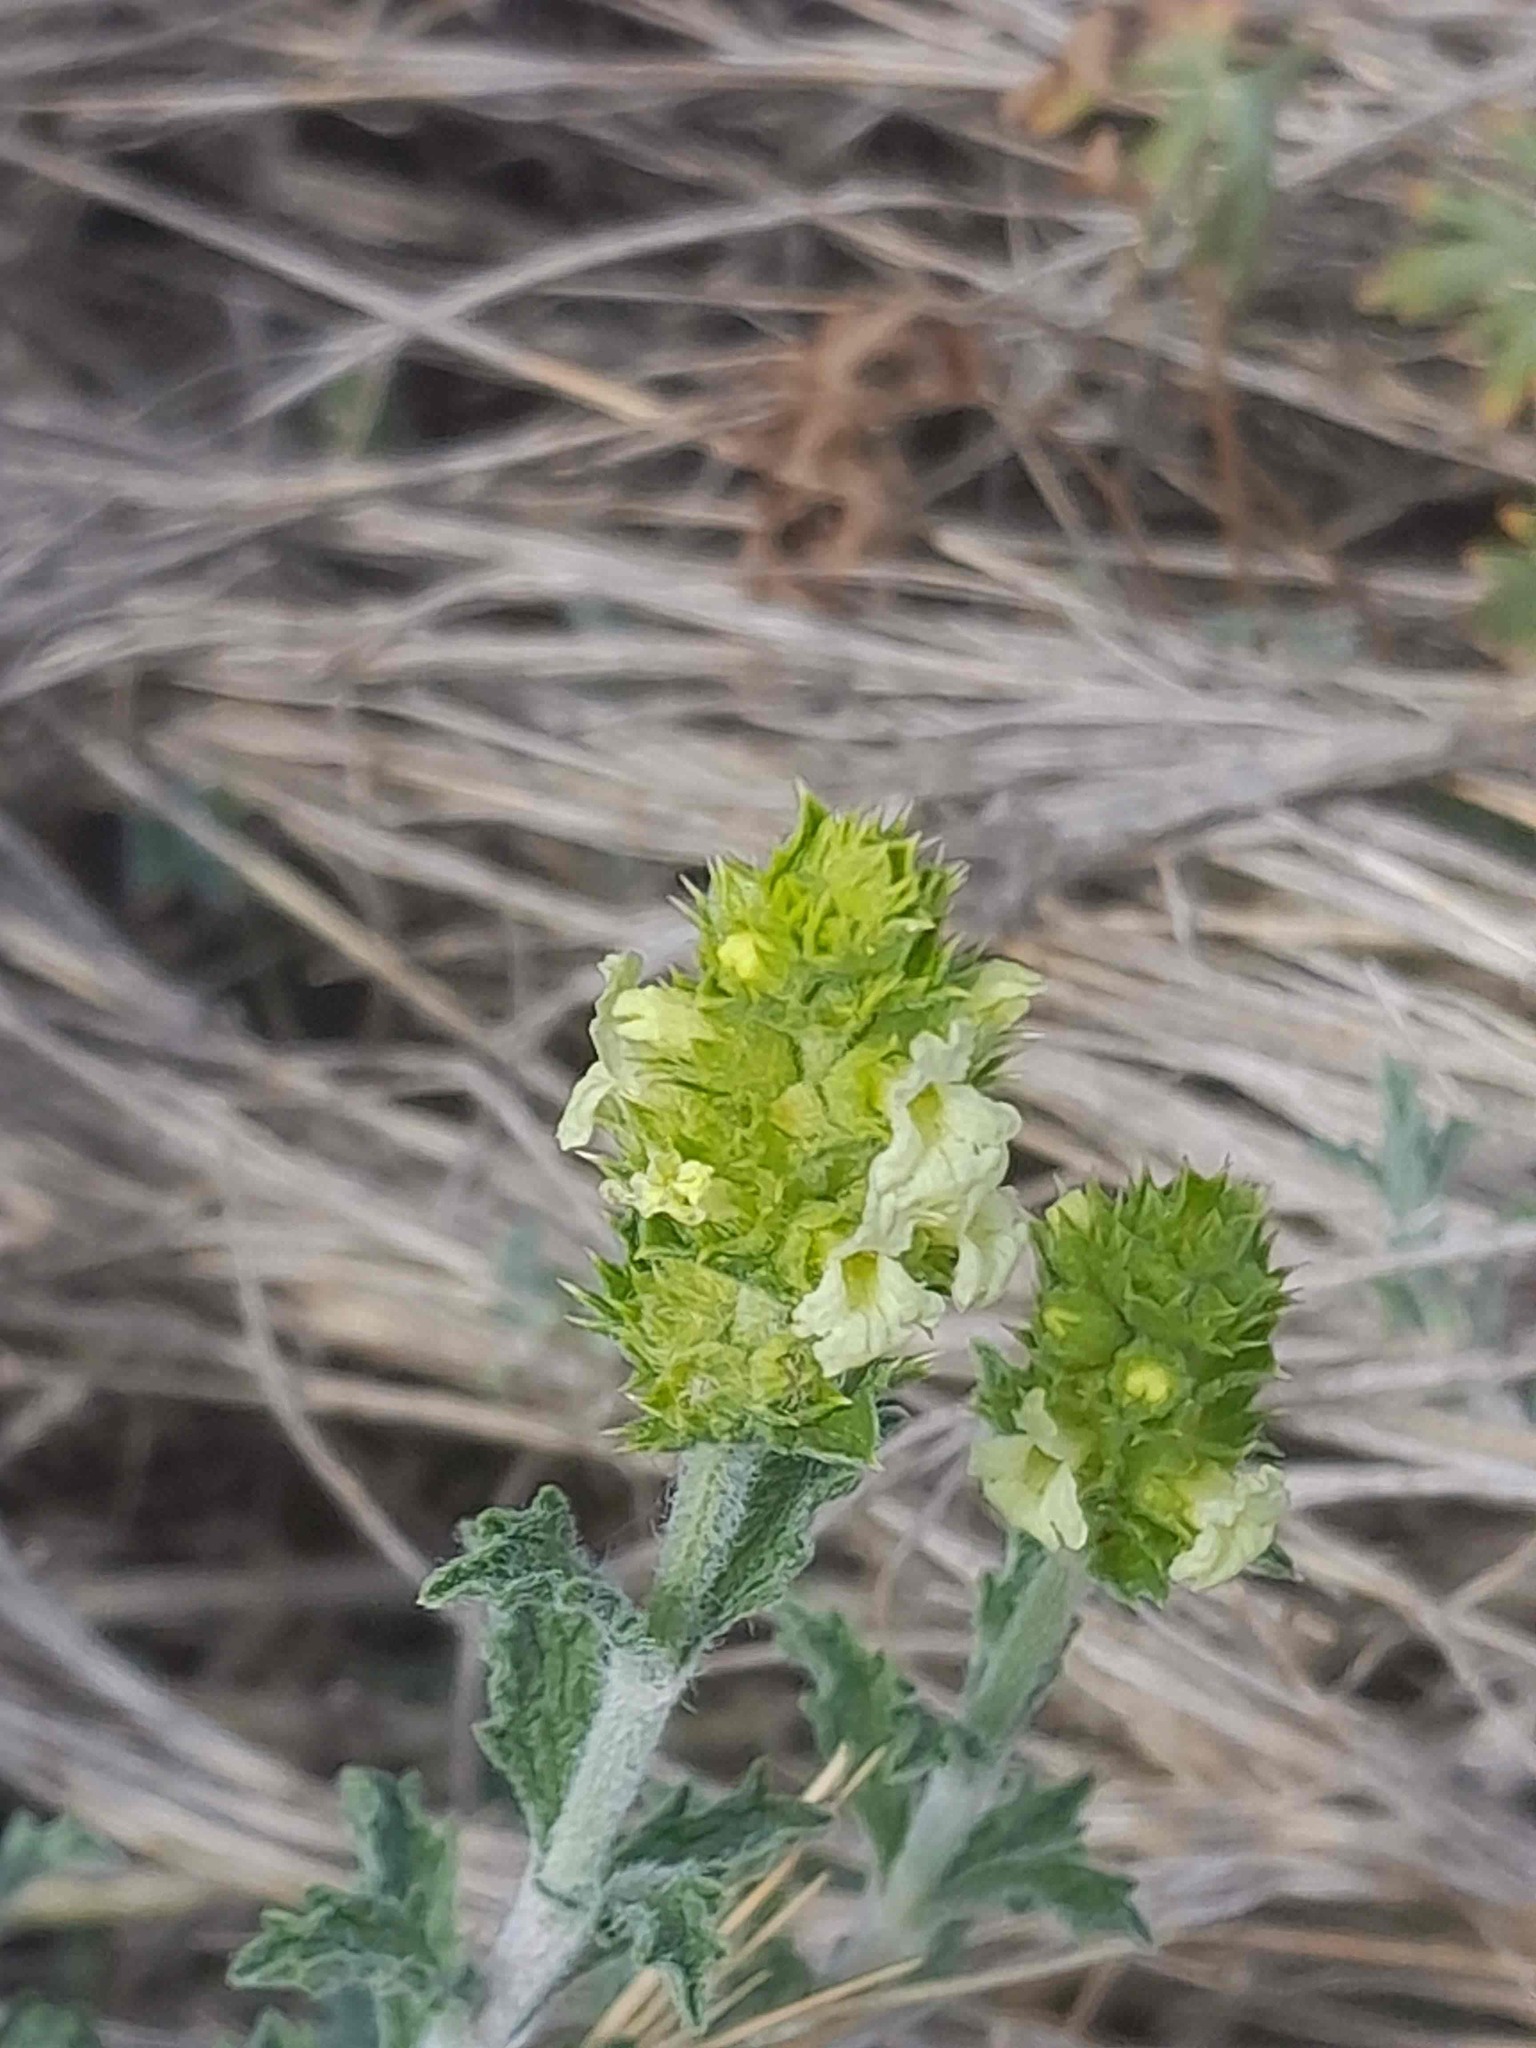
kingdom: Plantae
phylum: Tracheophyta
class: Magnoliopsida
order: Lamiales
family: Lamiaceae
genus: Sideritis
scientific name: Sideritis fruticulosa
